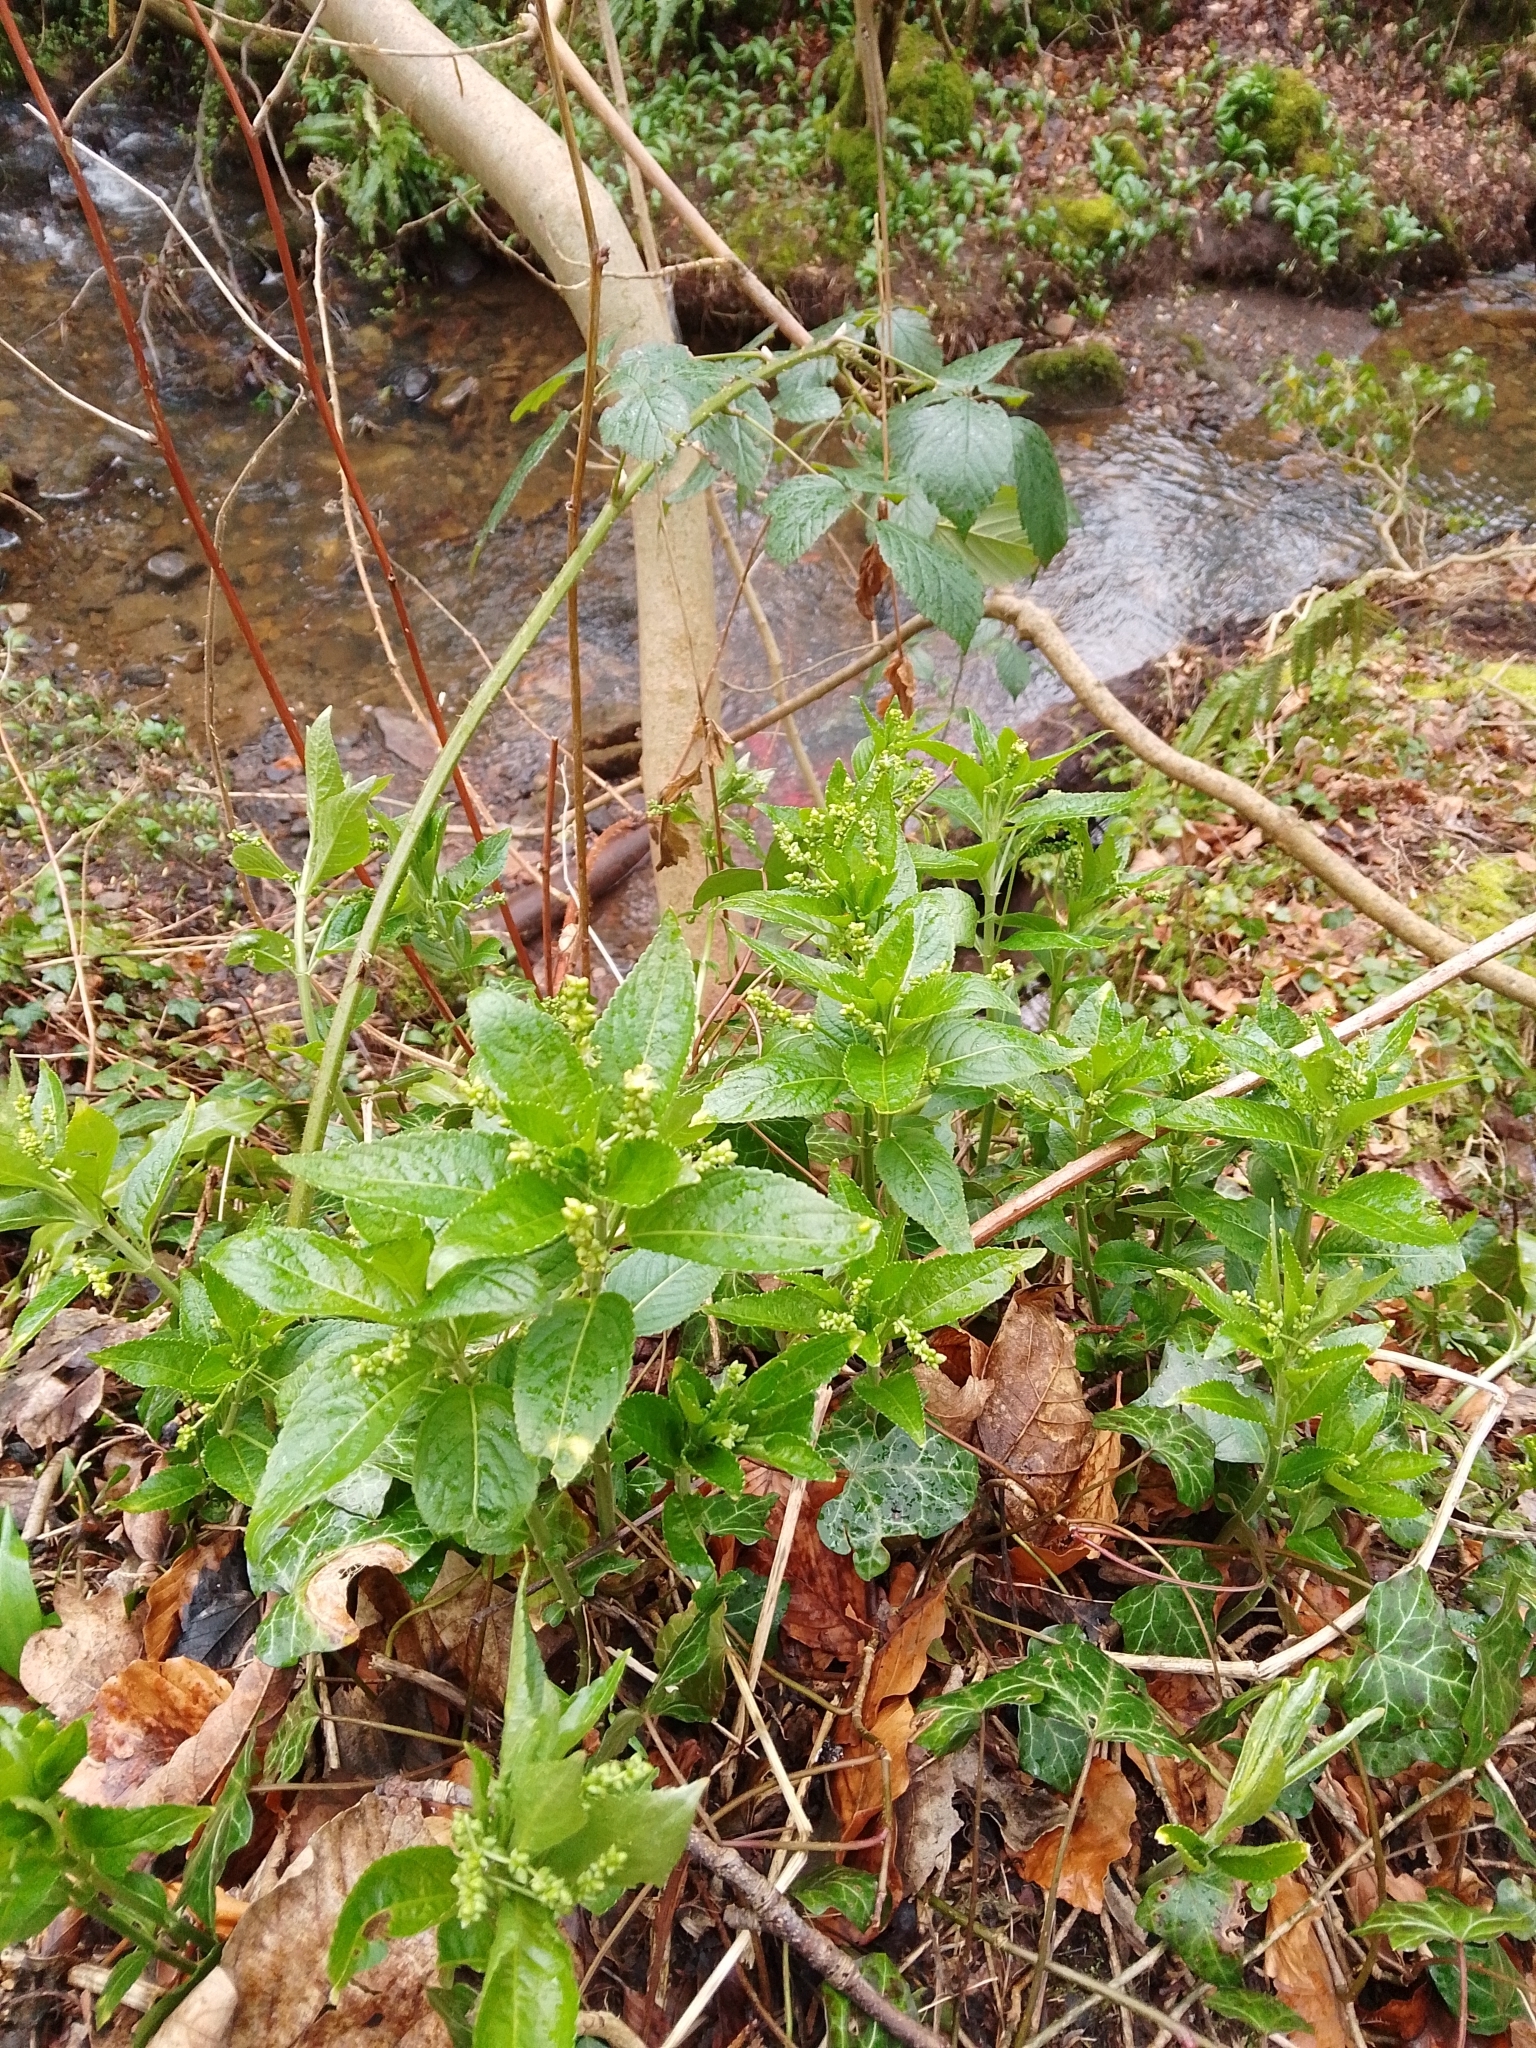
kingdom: Plantae
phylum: Tracheophyta
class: Magnoliopsida
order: Malpighiales
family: Euphorbiaceae
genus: Mercurialis
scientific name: Mercurialis perennis
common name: Dog mercury
